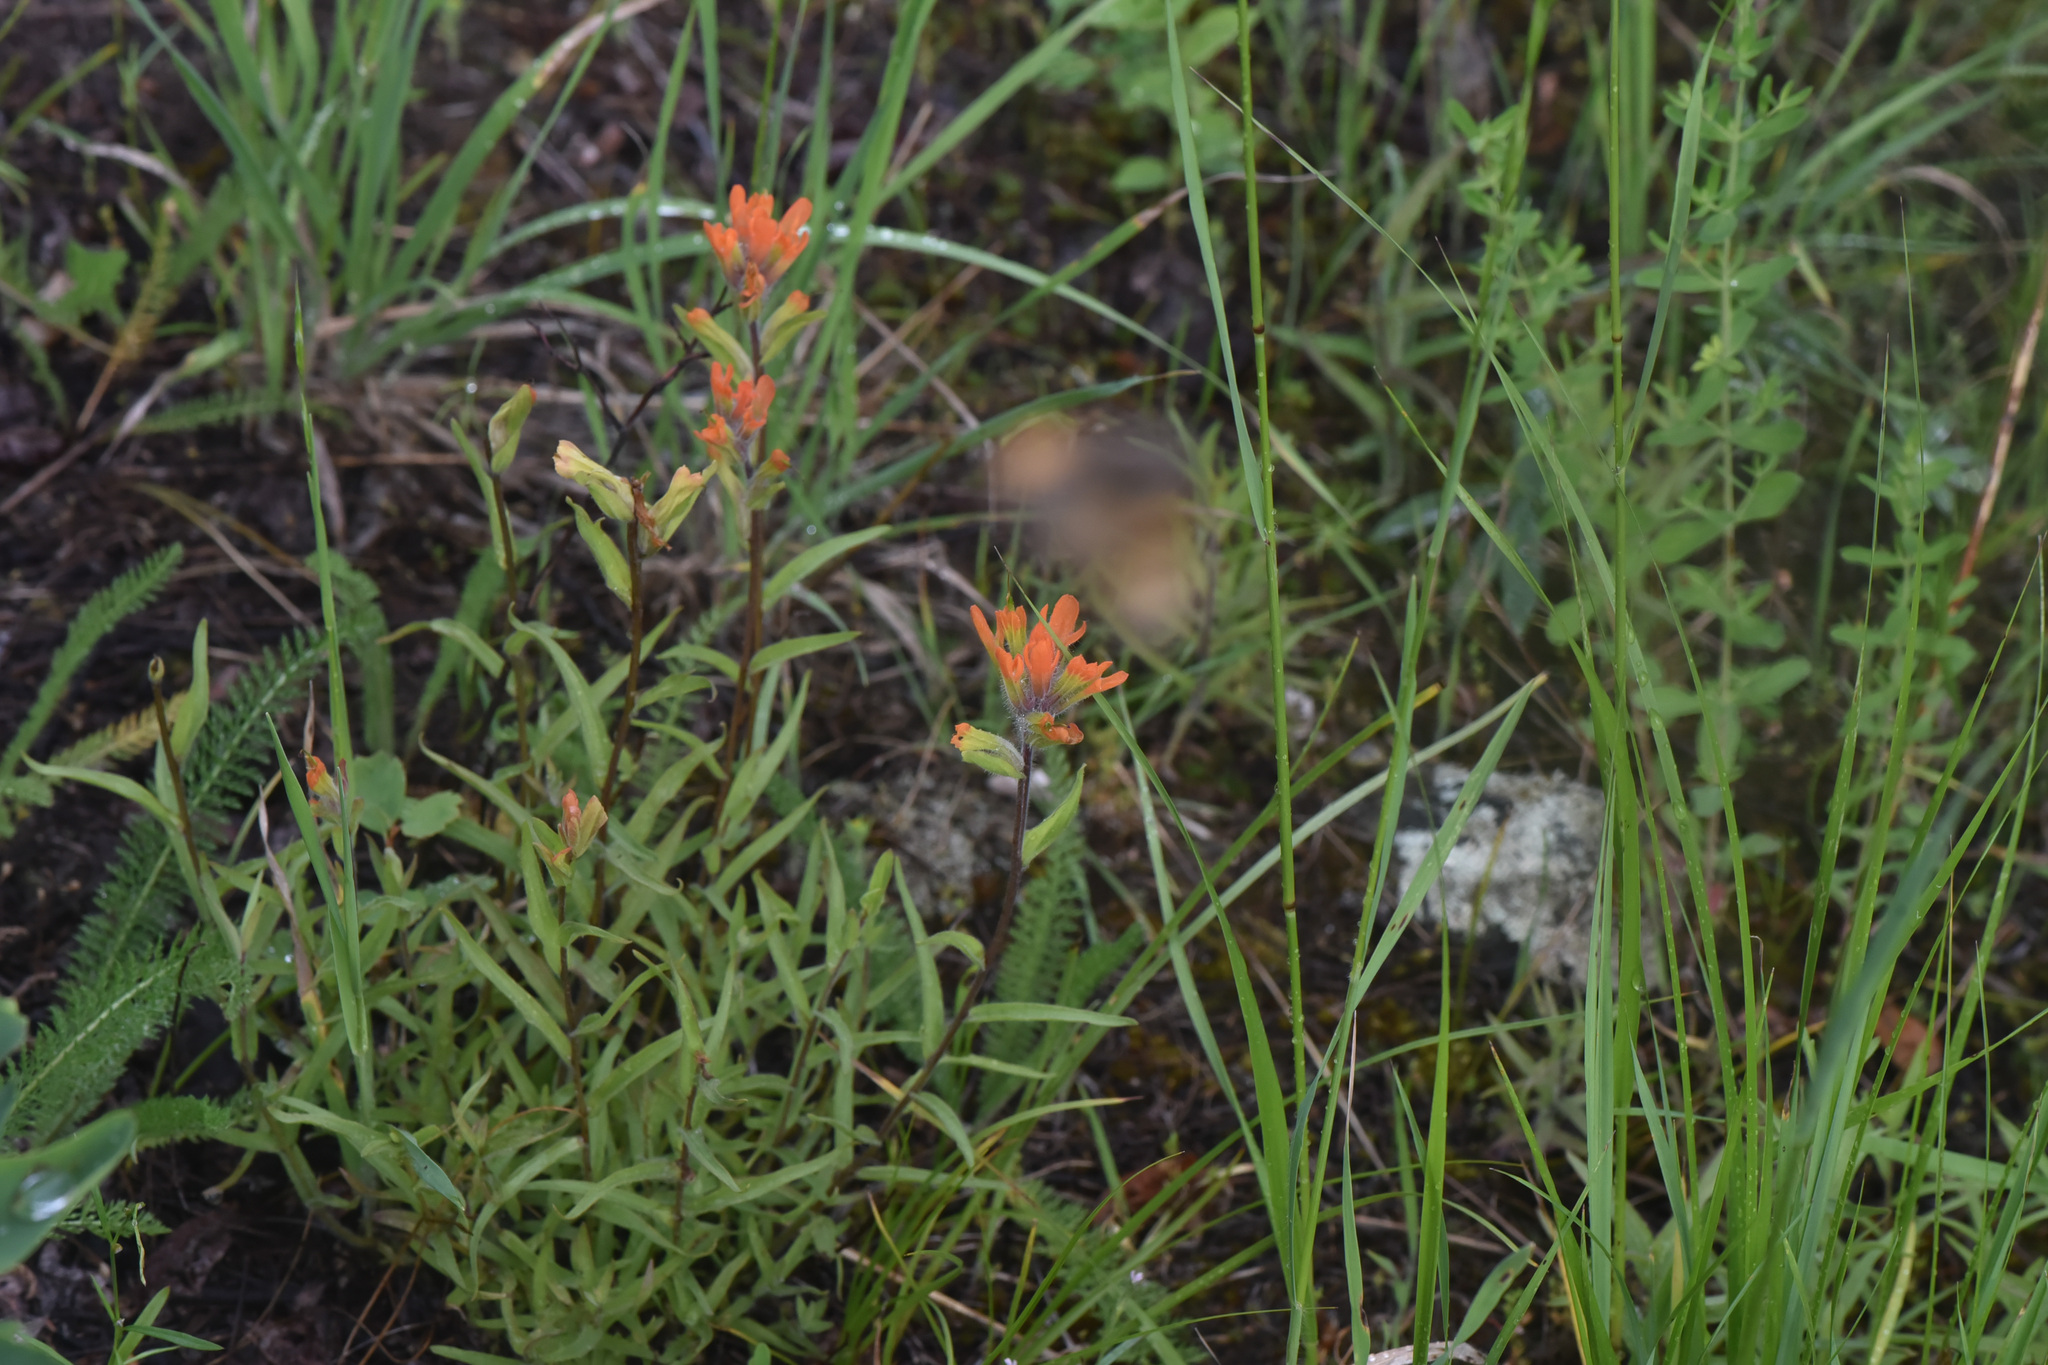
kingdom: Plantae
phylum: Tracheophyta
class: Magnoliopsida
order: Lamiales
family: Orobanchaceae
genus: Castilleja
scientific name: Castilleja hispida
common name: Bristly paintbrush
